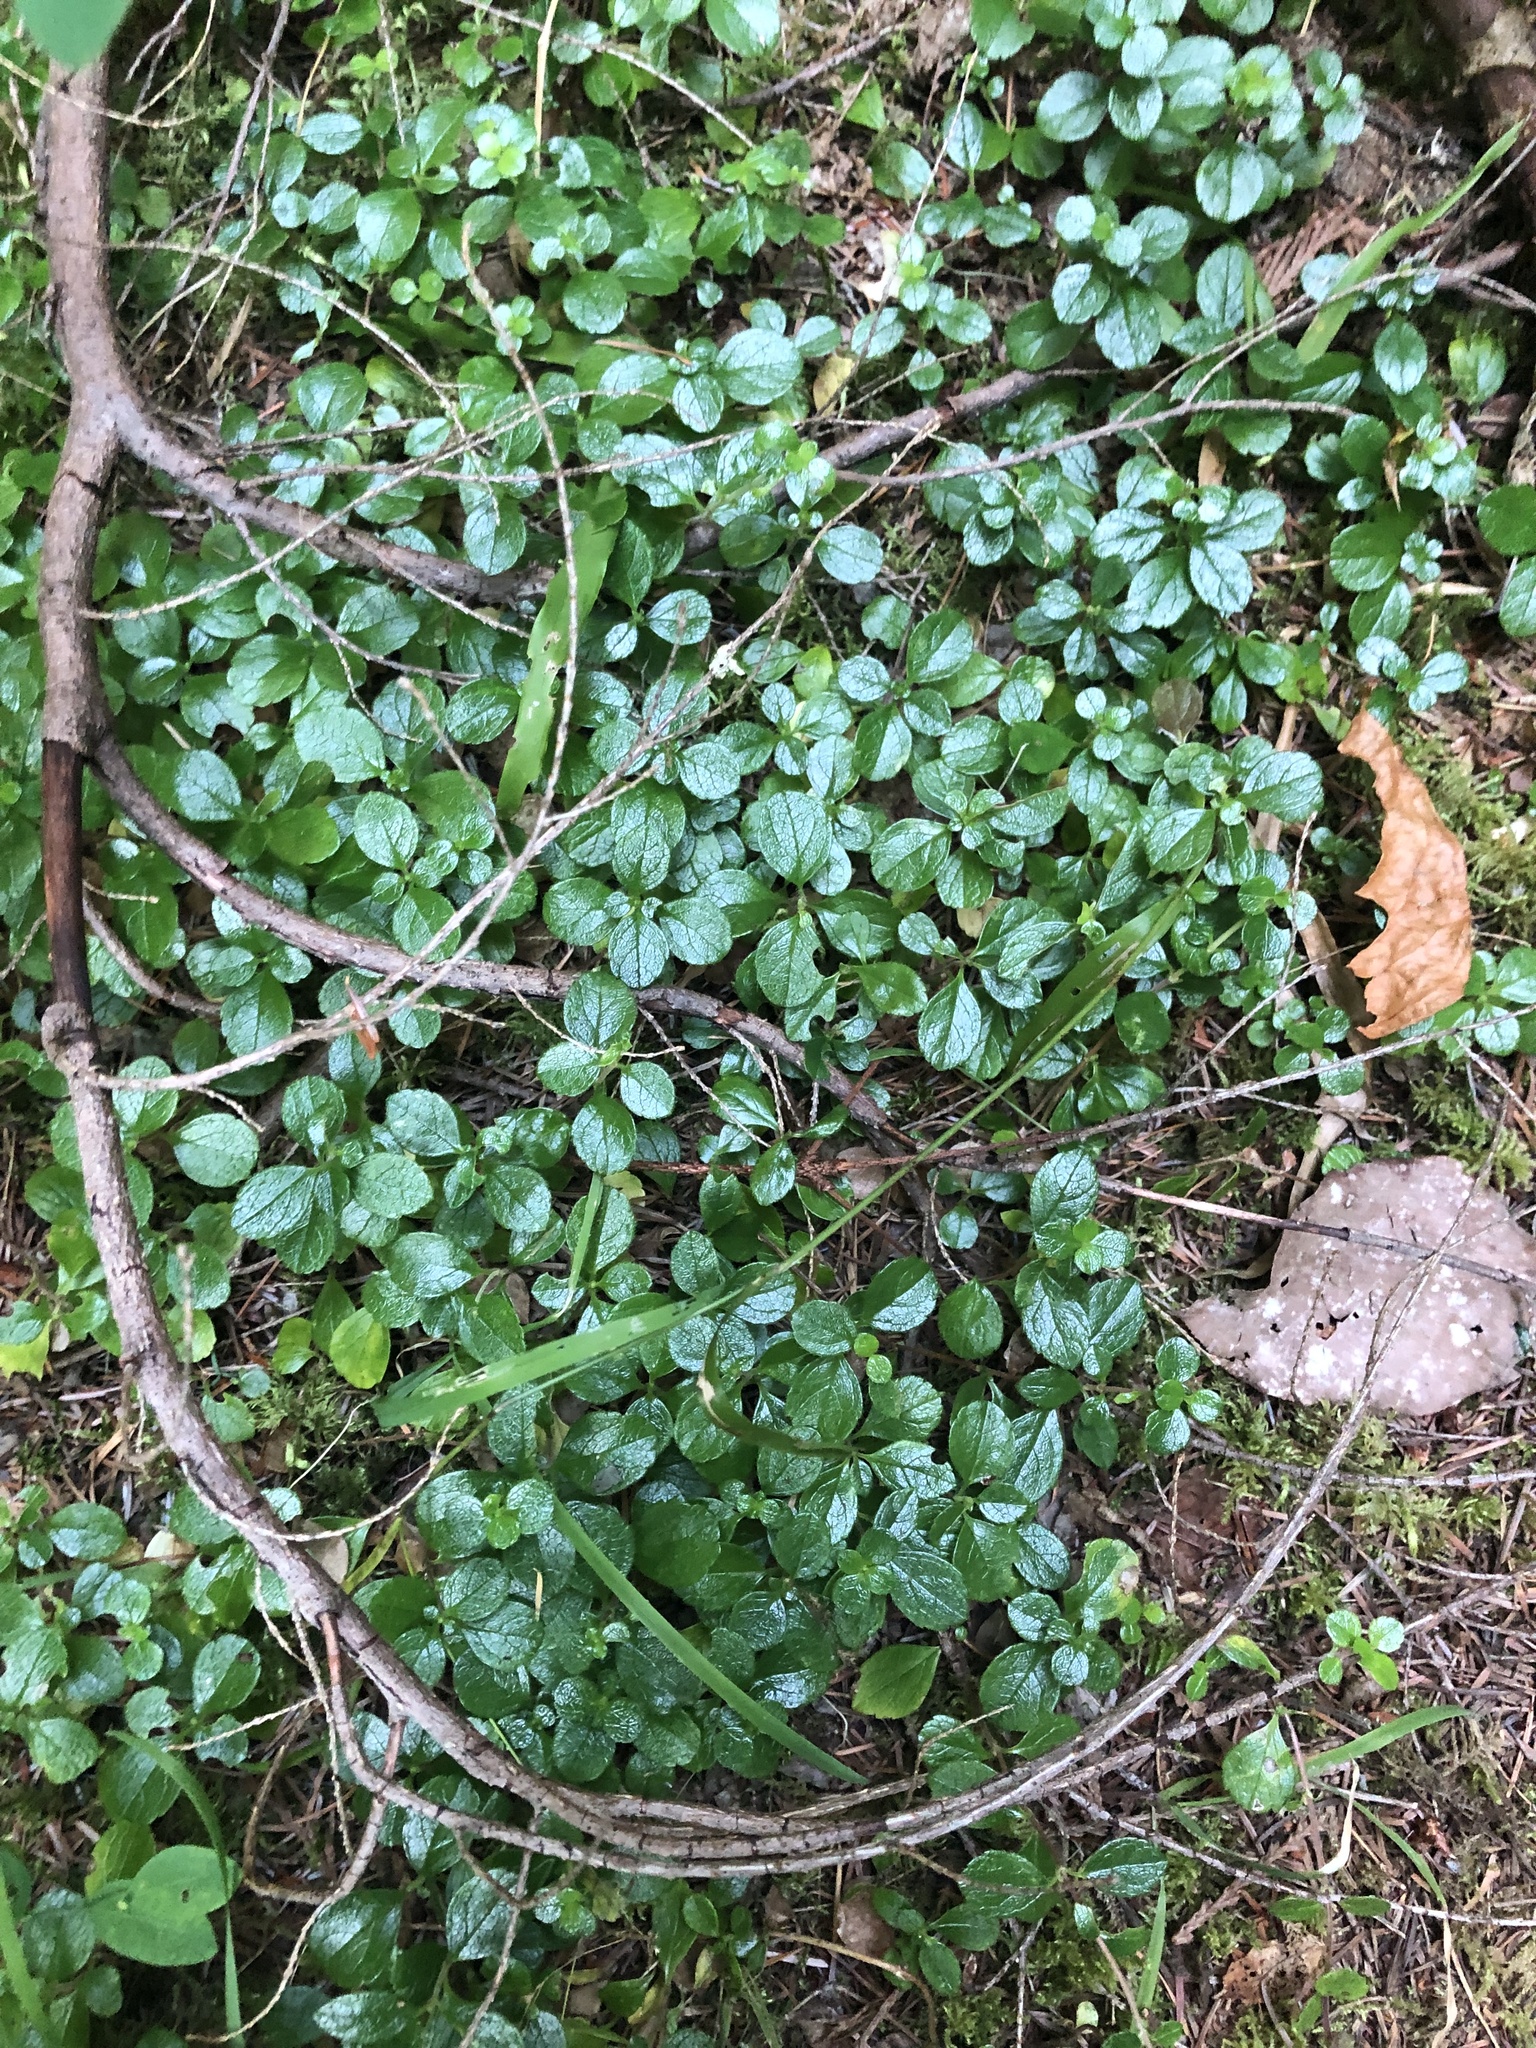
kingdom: Plantae
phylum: Tracheophyta
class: Magnoliopsida
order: Dipsacales
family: Caprifoliaceae
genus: Linnaea
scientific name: Linnaea borealis
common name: Twinflower
